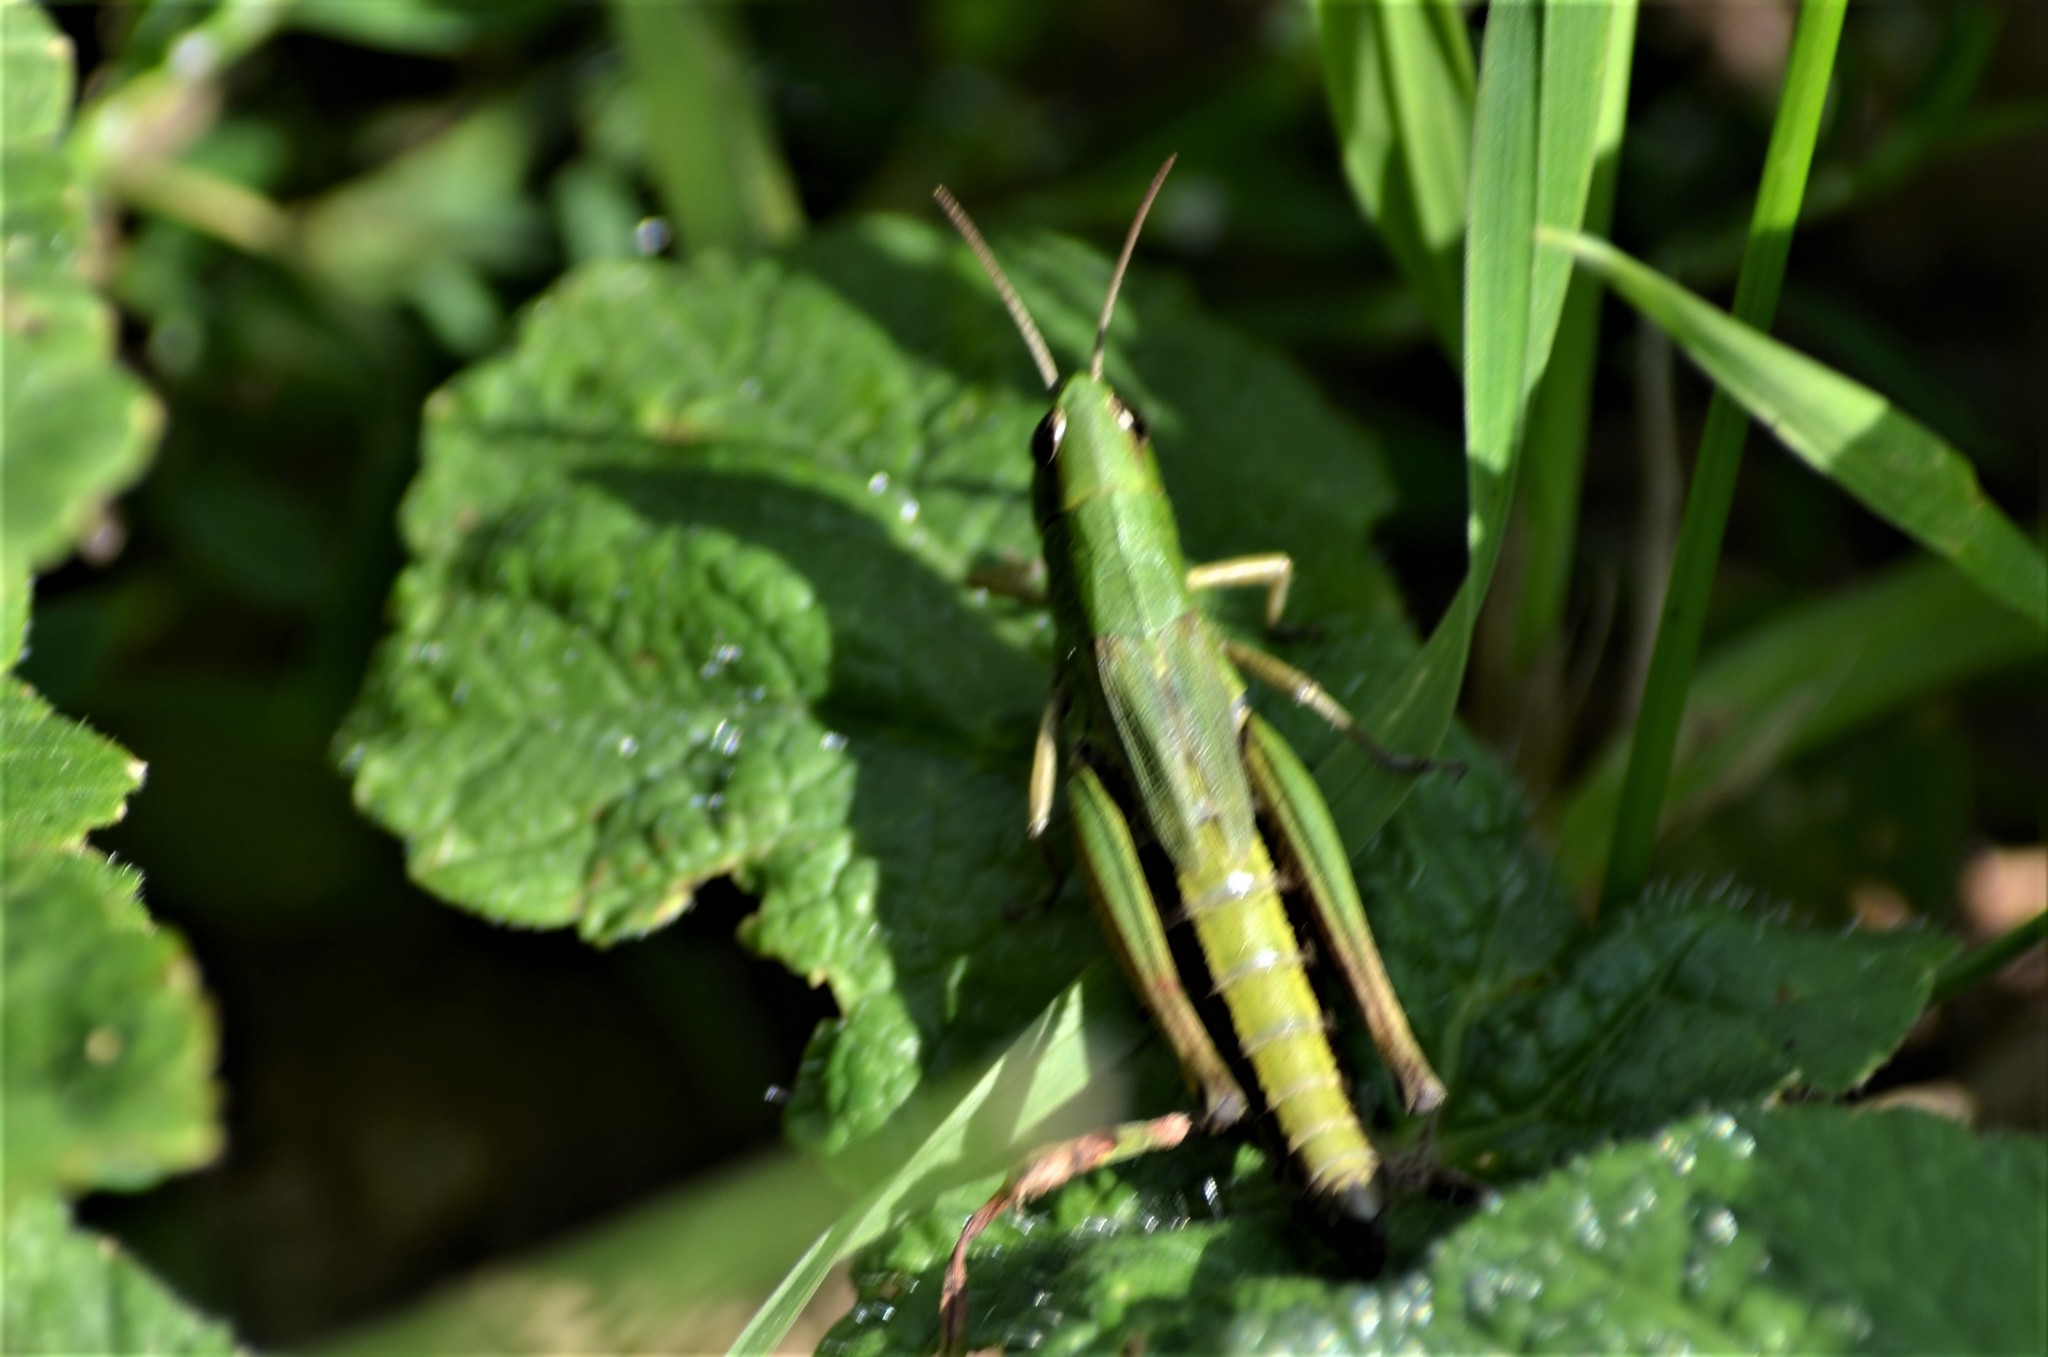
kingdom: Animalia
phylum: Arthropoda
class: Insecta
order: Orthoptera
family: Acrididae
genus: Pseudochorthippus
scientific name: Pseudochorthippus parallelus
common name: Meadow grasshopper
